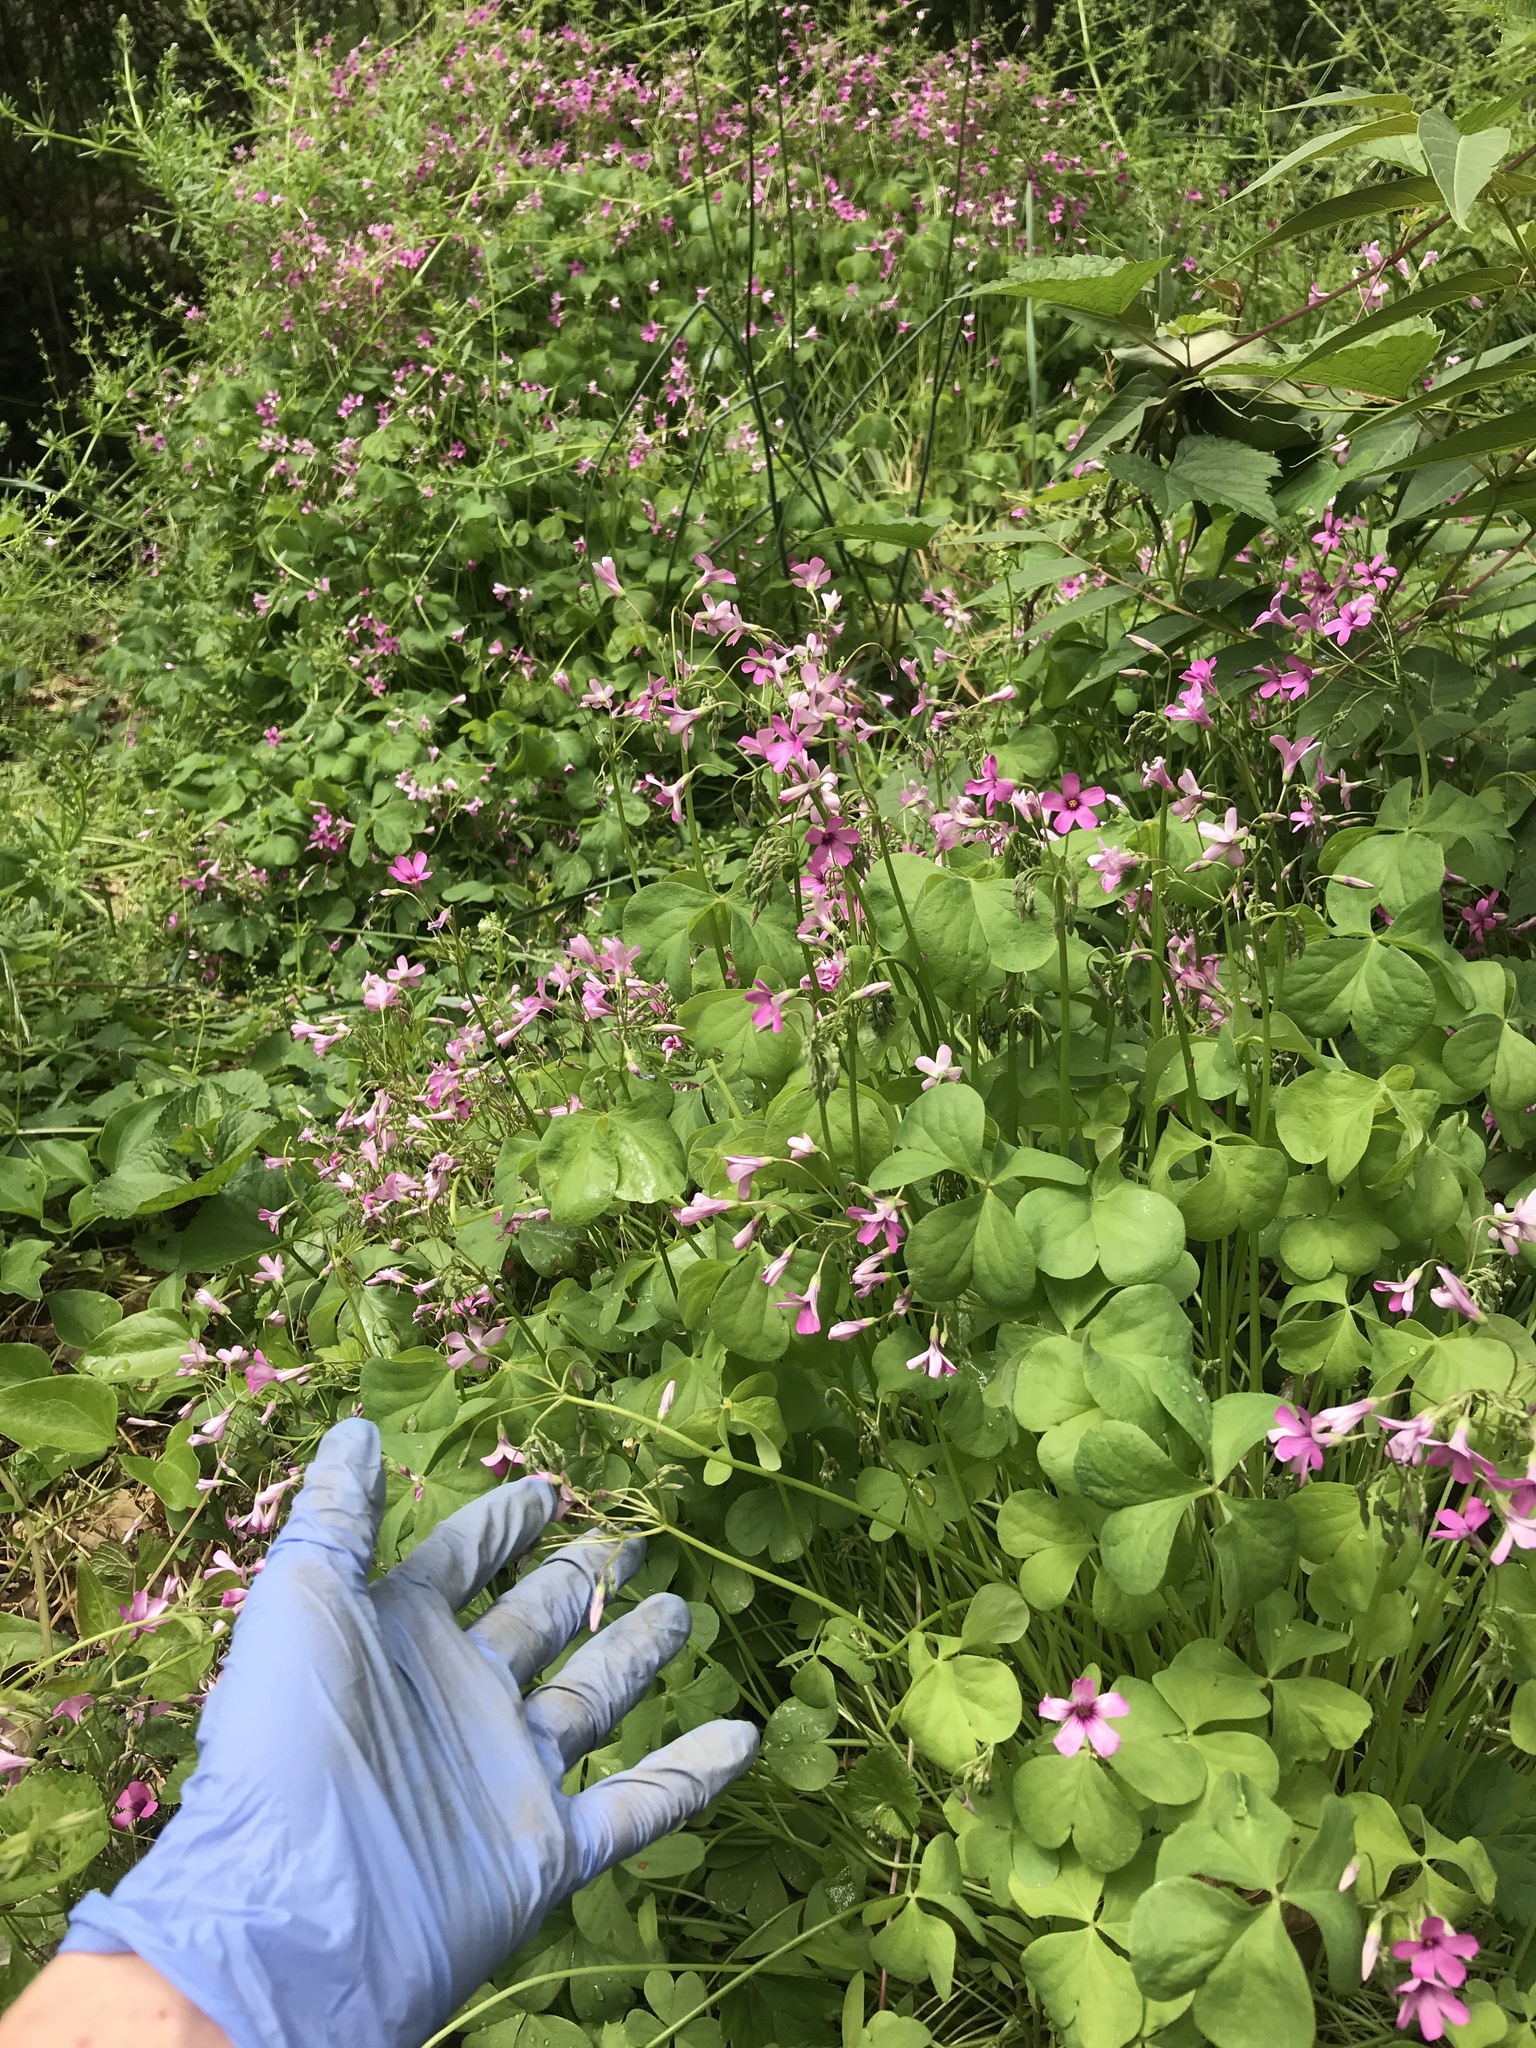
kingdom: Plantae
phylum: Tracheophyta
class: Magnoliopsida
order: Oxalidales
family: Oxalidaceae
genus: Oxalis
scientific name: Oxalis articulata
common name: Pink-sorrel
